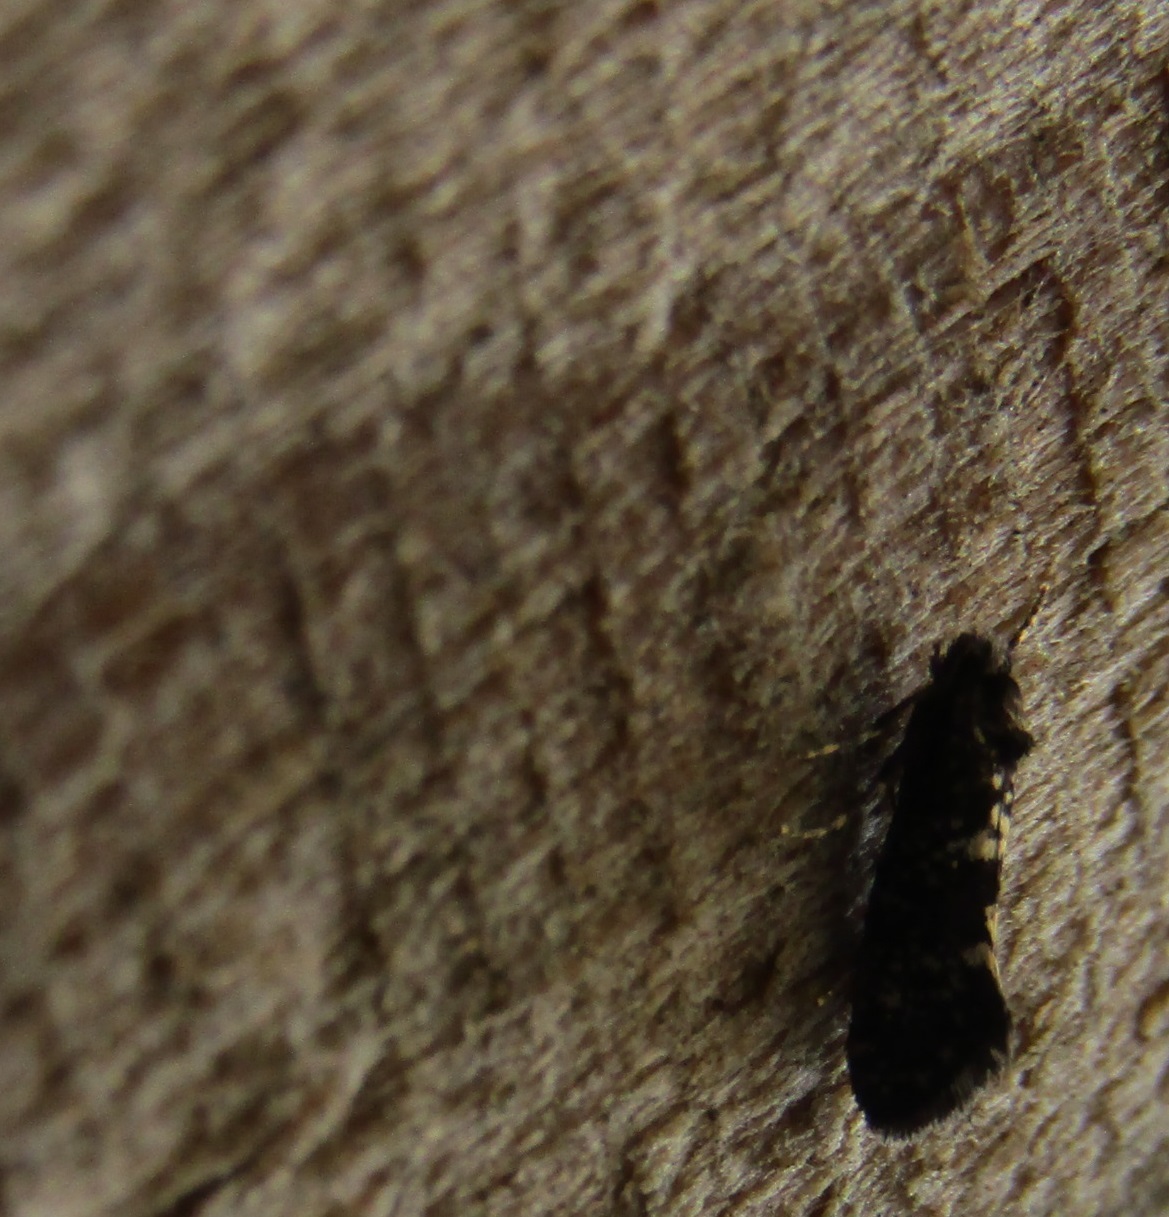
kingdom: Animalia
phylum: Arthropoda
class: Insecta
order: Lepidoptera
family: Psychidae
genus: Scoriodyta
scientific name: Scoriodyta conisalia
